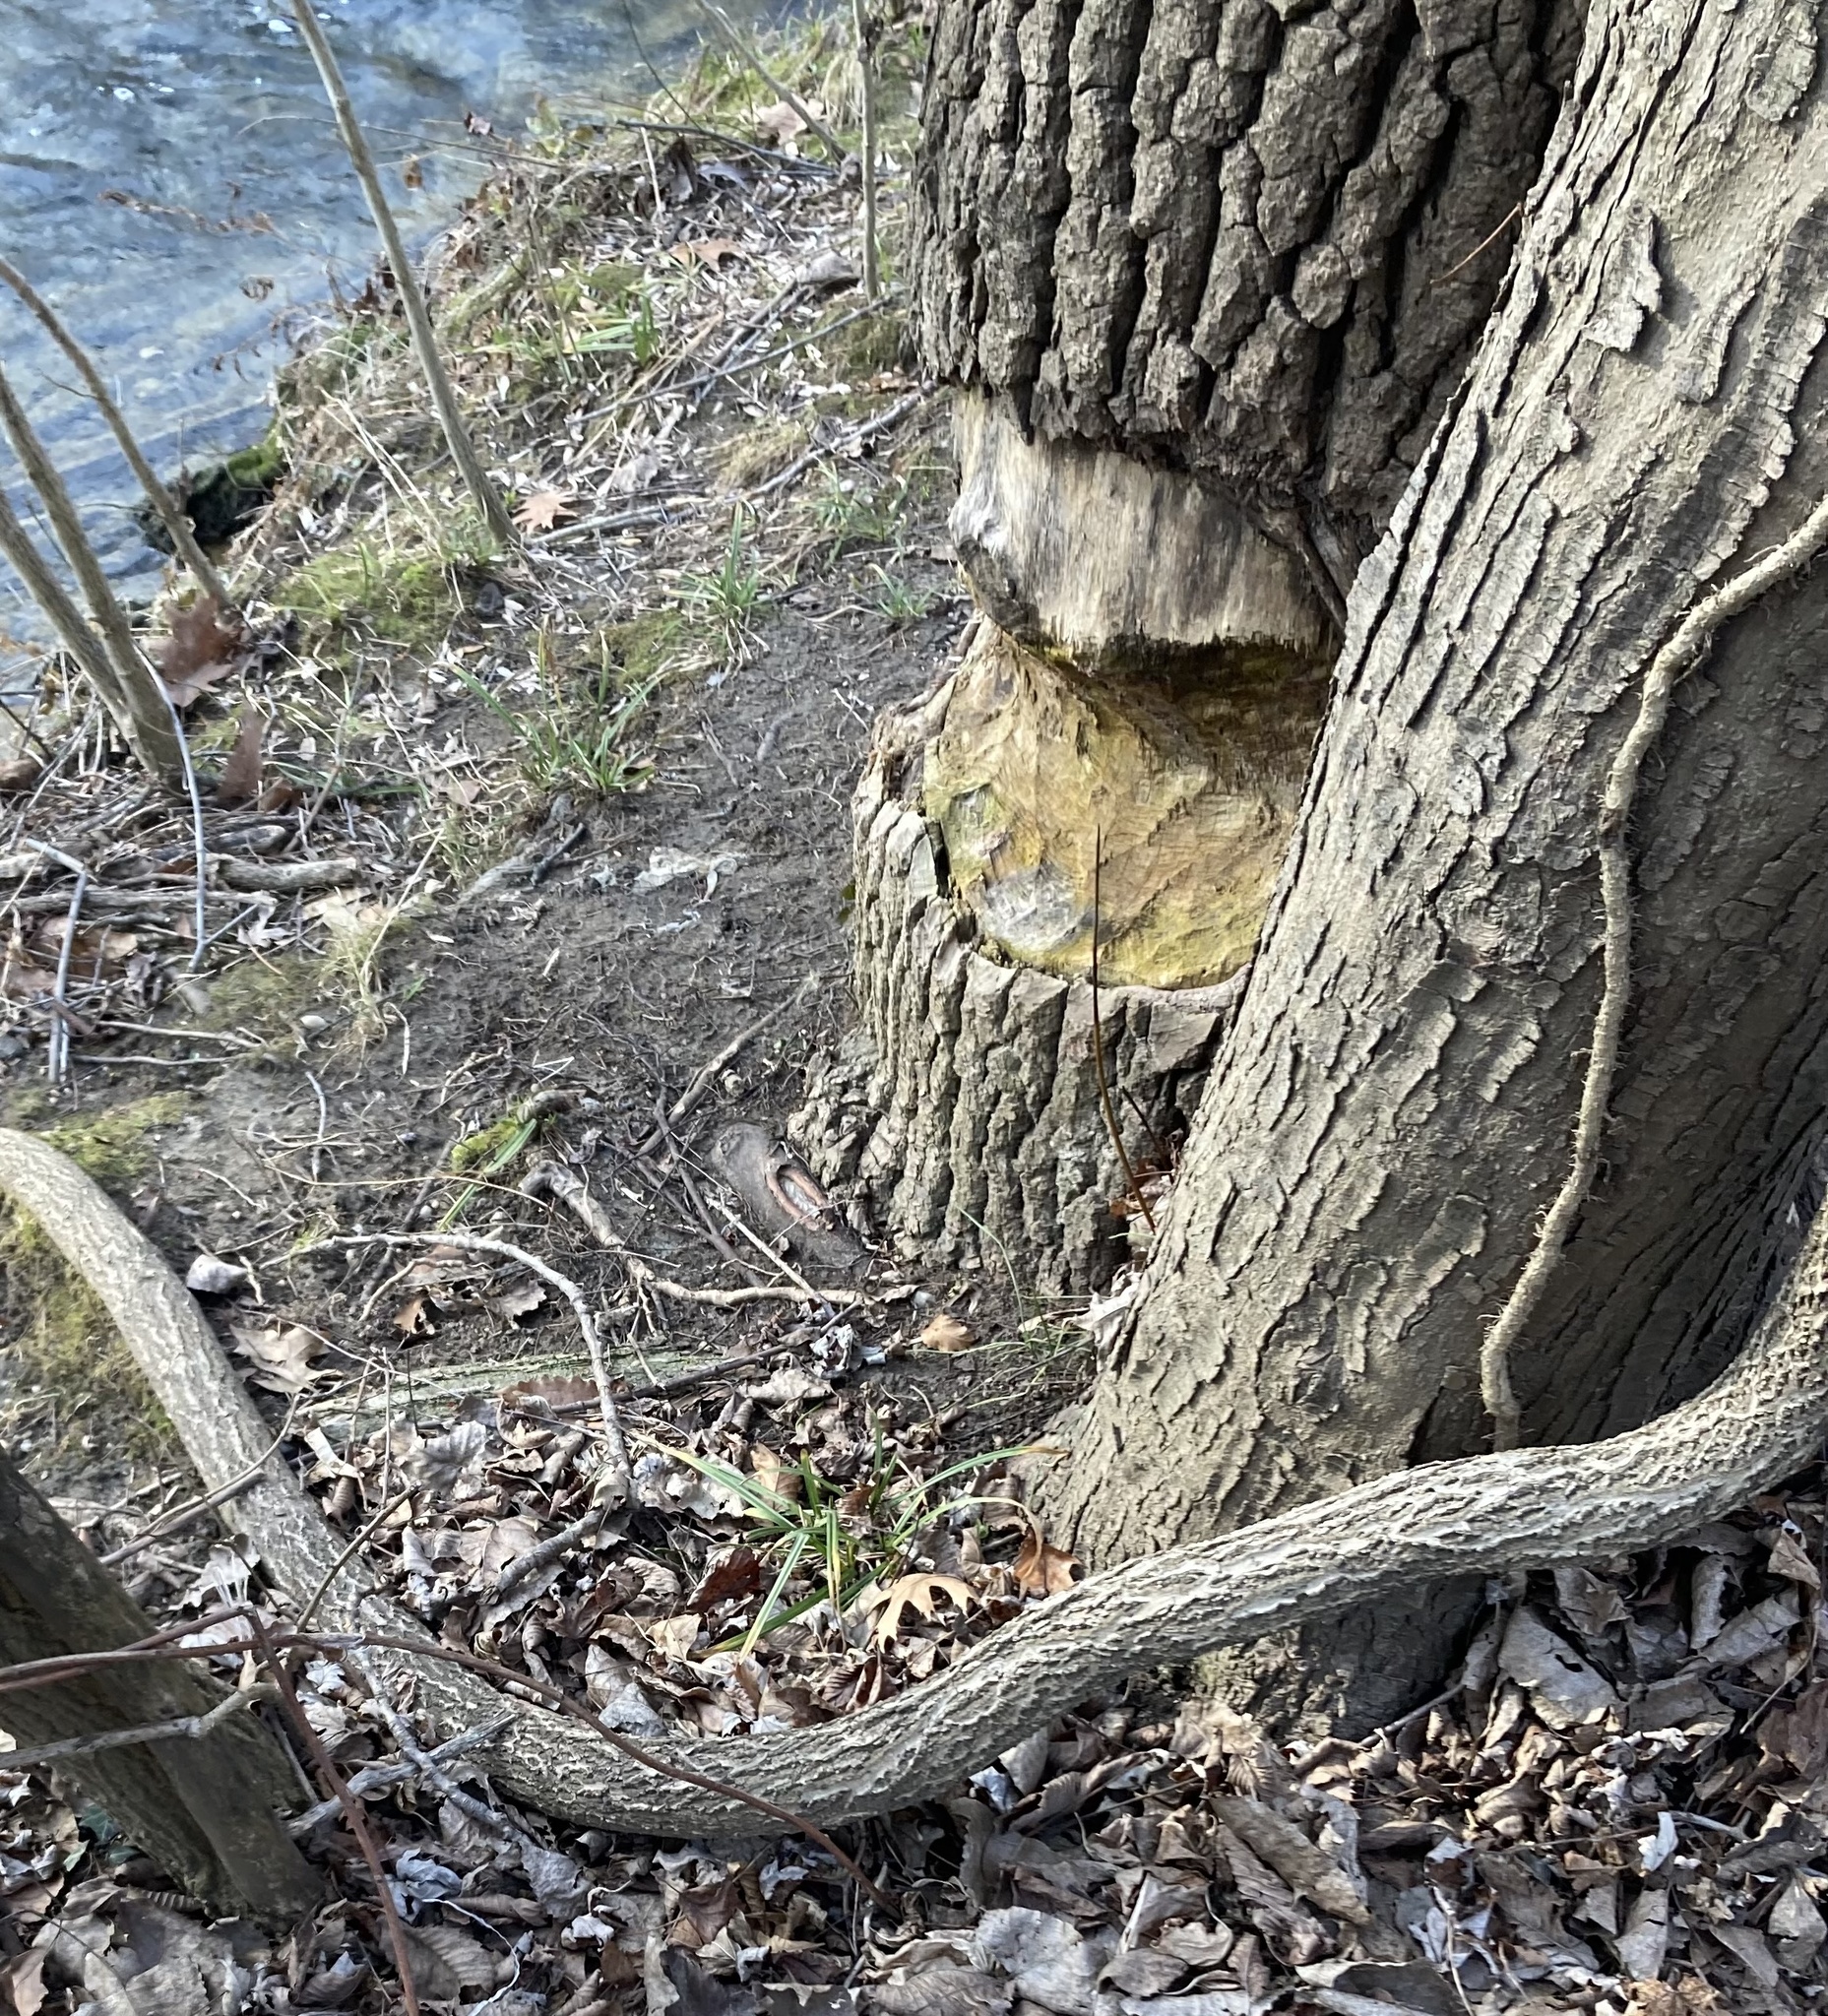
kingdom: Animalia
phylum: Chordata
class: Mammalia
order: Rodentia
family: Castoridae
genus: Castor
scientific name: Castor canadensis
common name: American beaver
